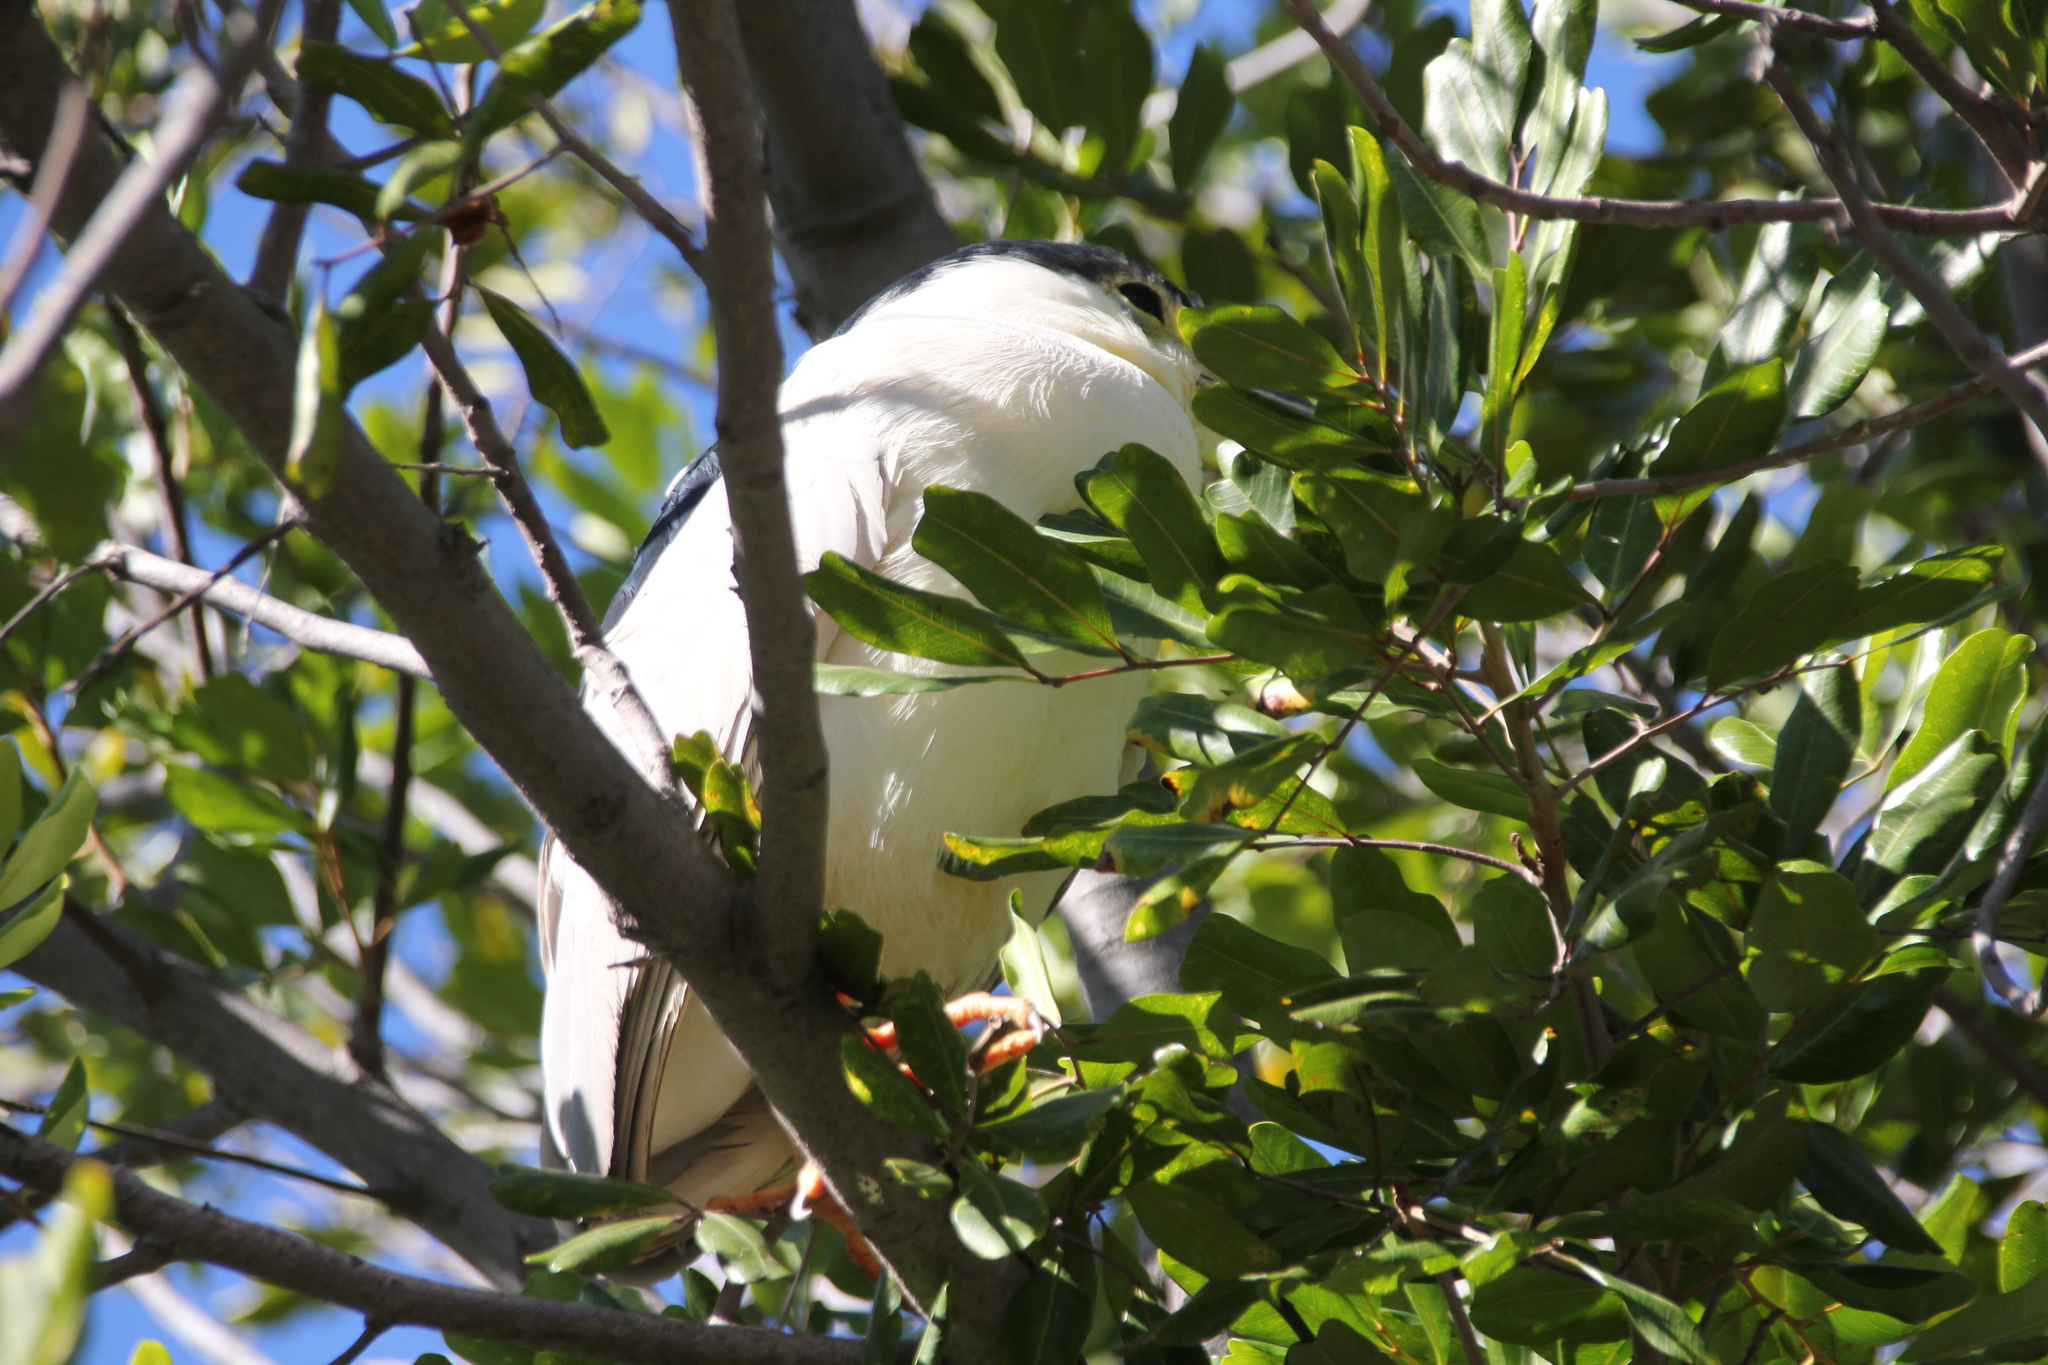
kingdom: Animalia
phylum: Chordata
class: Aves
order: Pelecaniformes
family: Ardeidae
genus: Nycticorax
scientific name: Nycticorax nycticorax
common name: Black-crowned night heron
